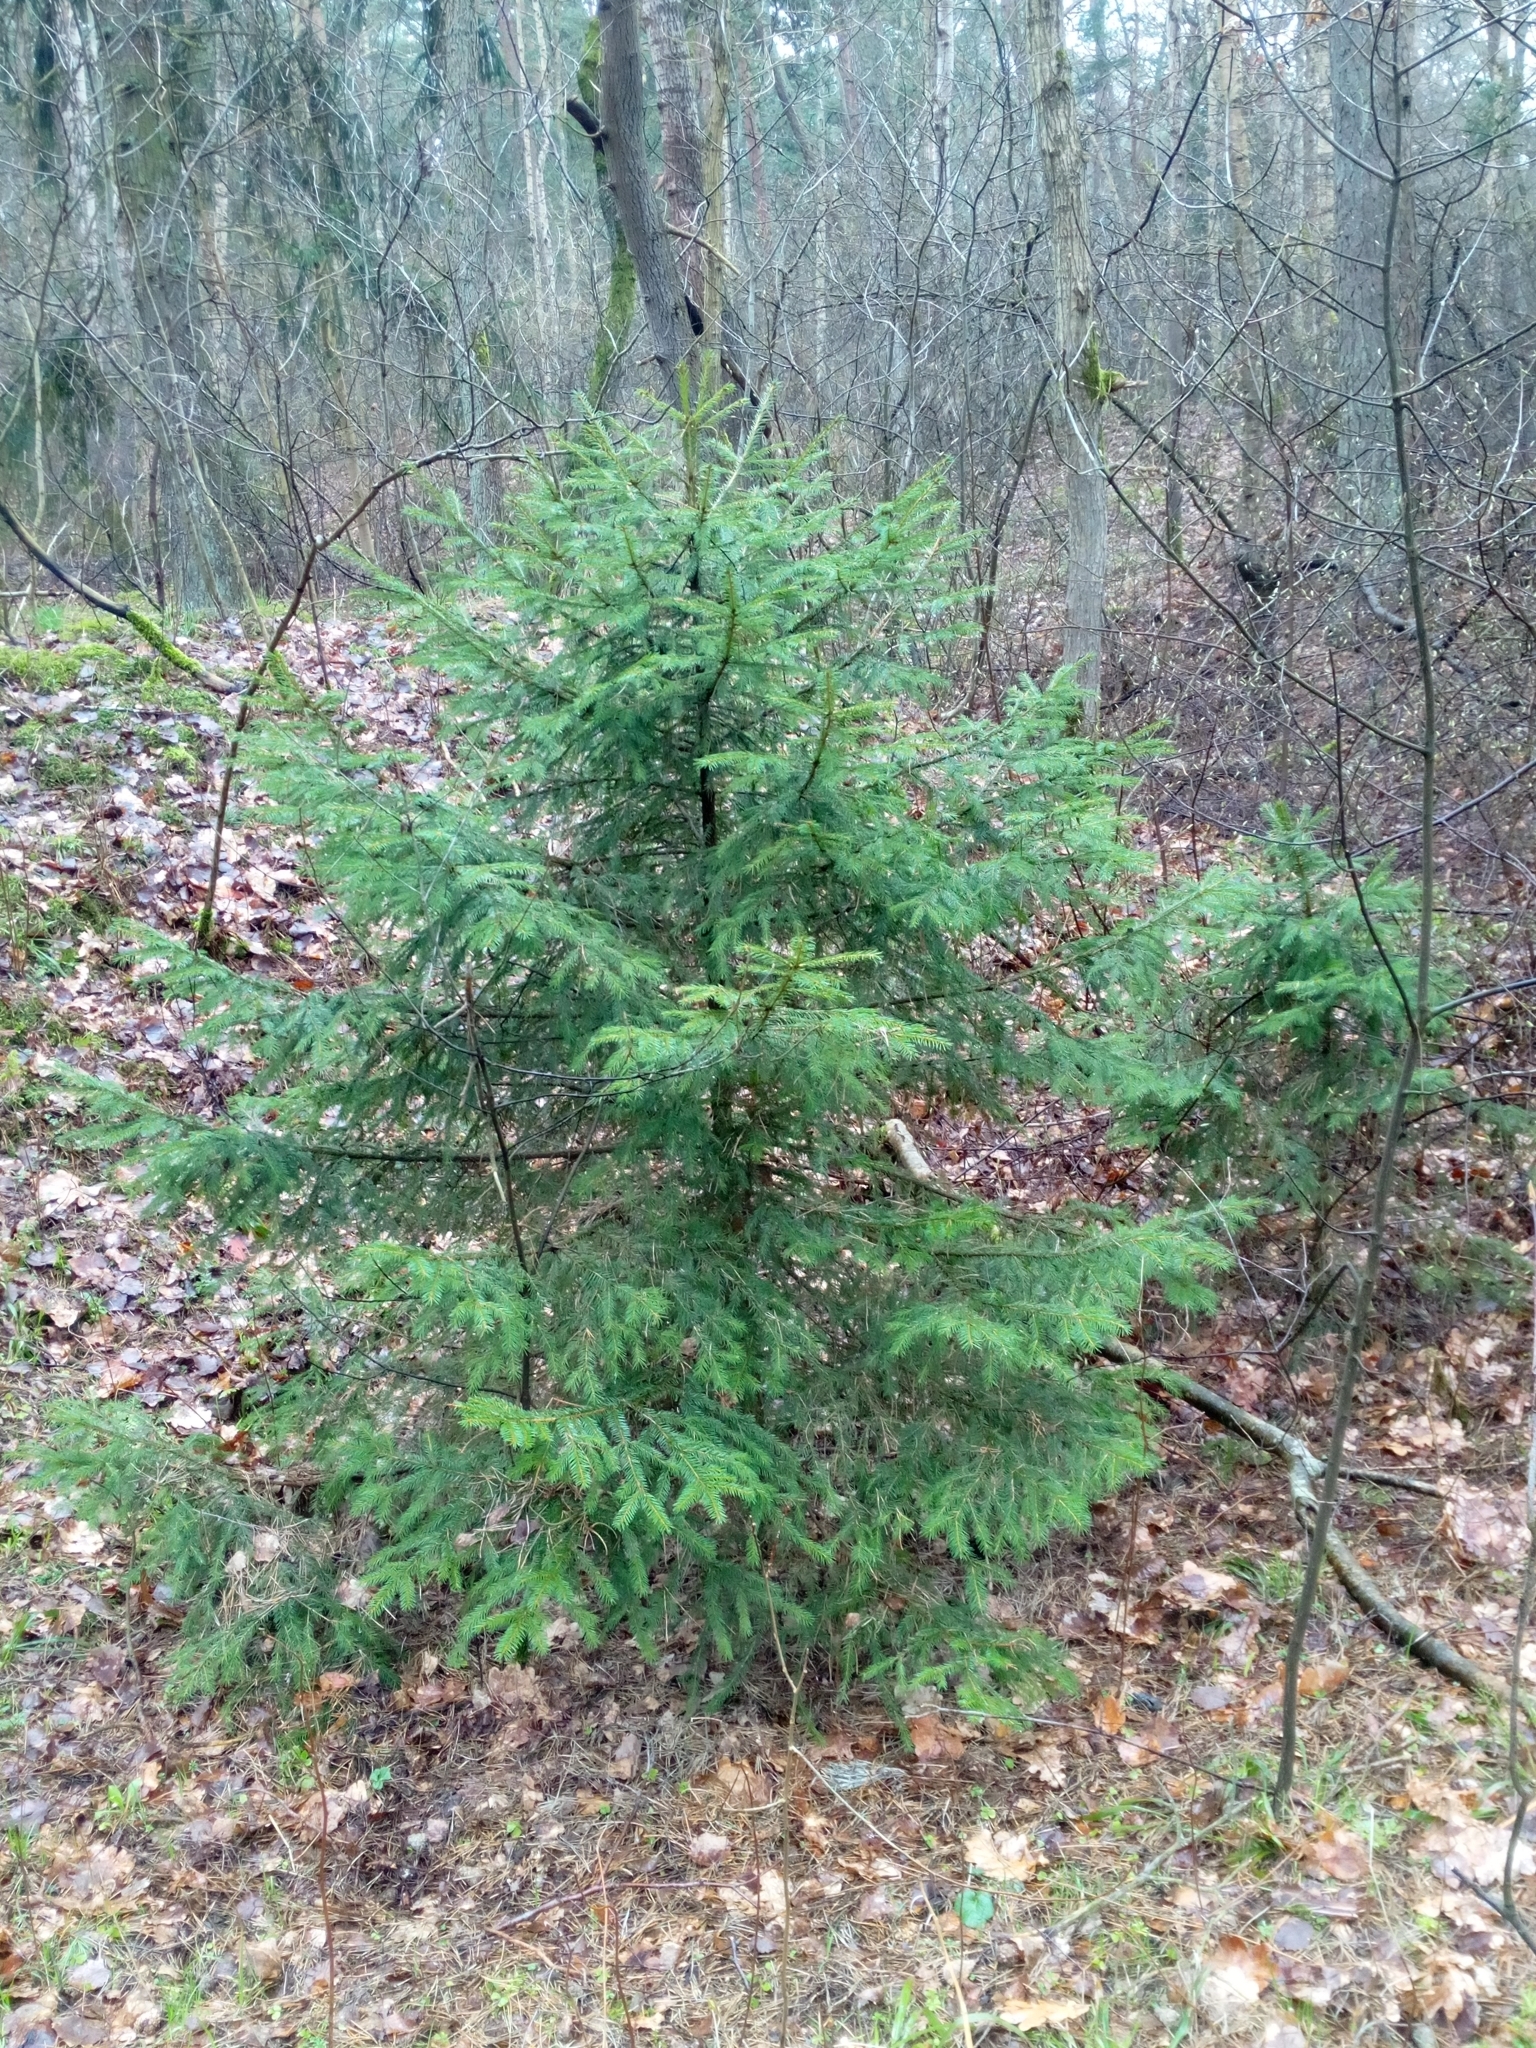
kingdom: Plantae
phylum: Tracheophyta
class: Pinopsida
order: Pinales
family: Pinaceae
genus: Picea
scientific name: Picea abies
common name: Norway spruce
